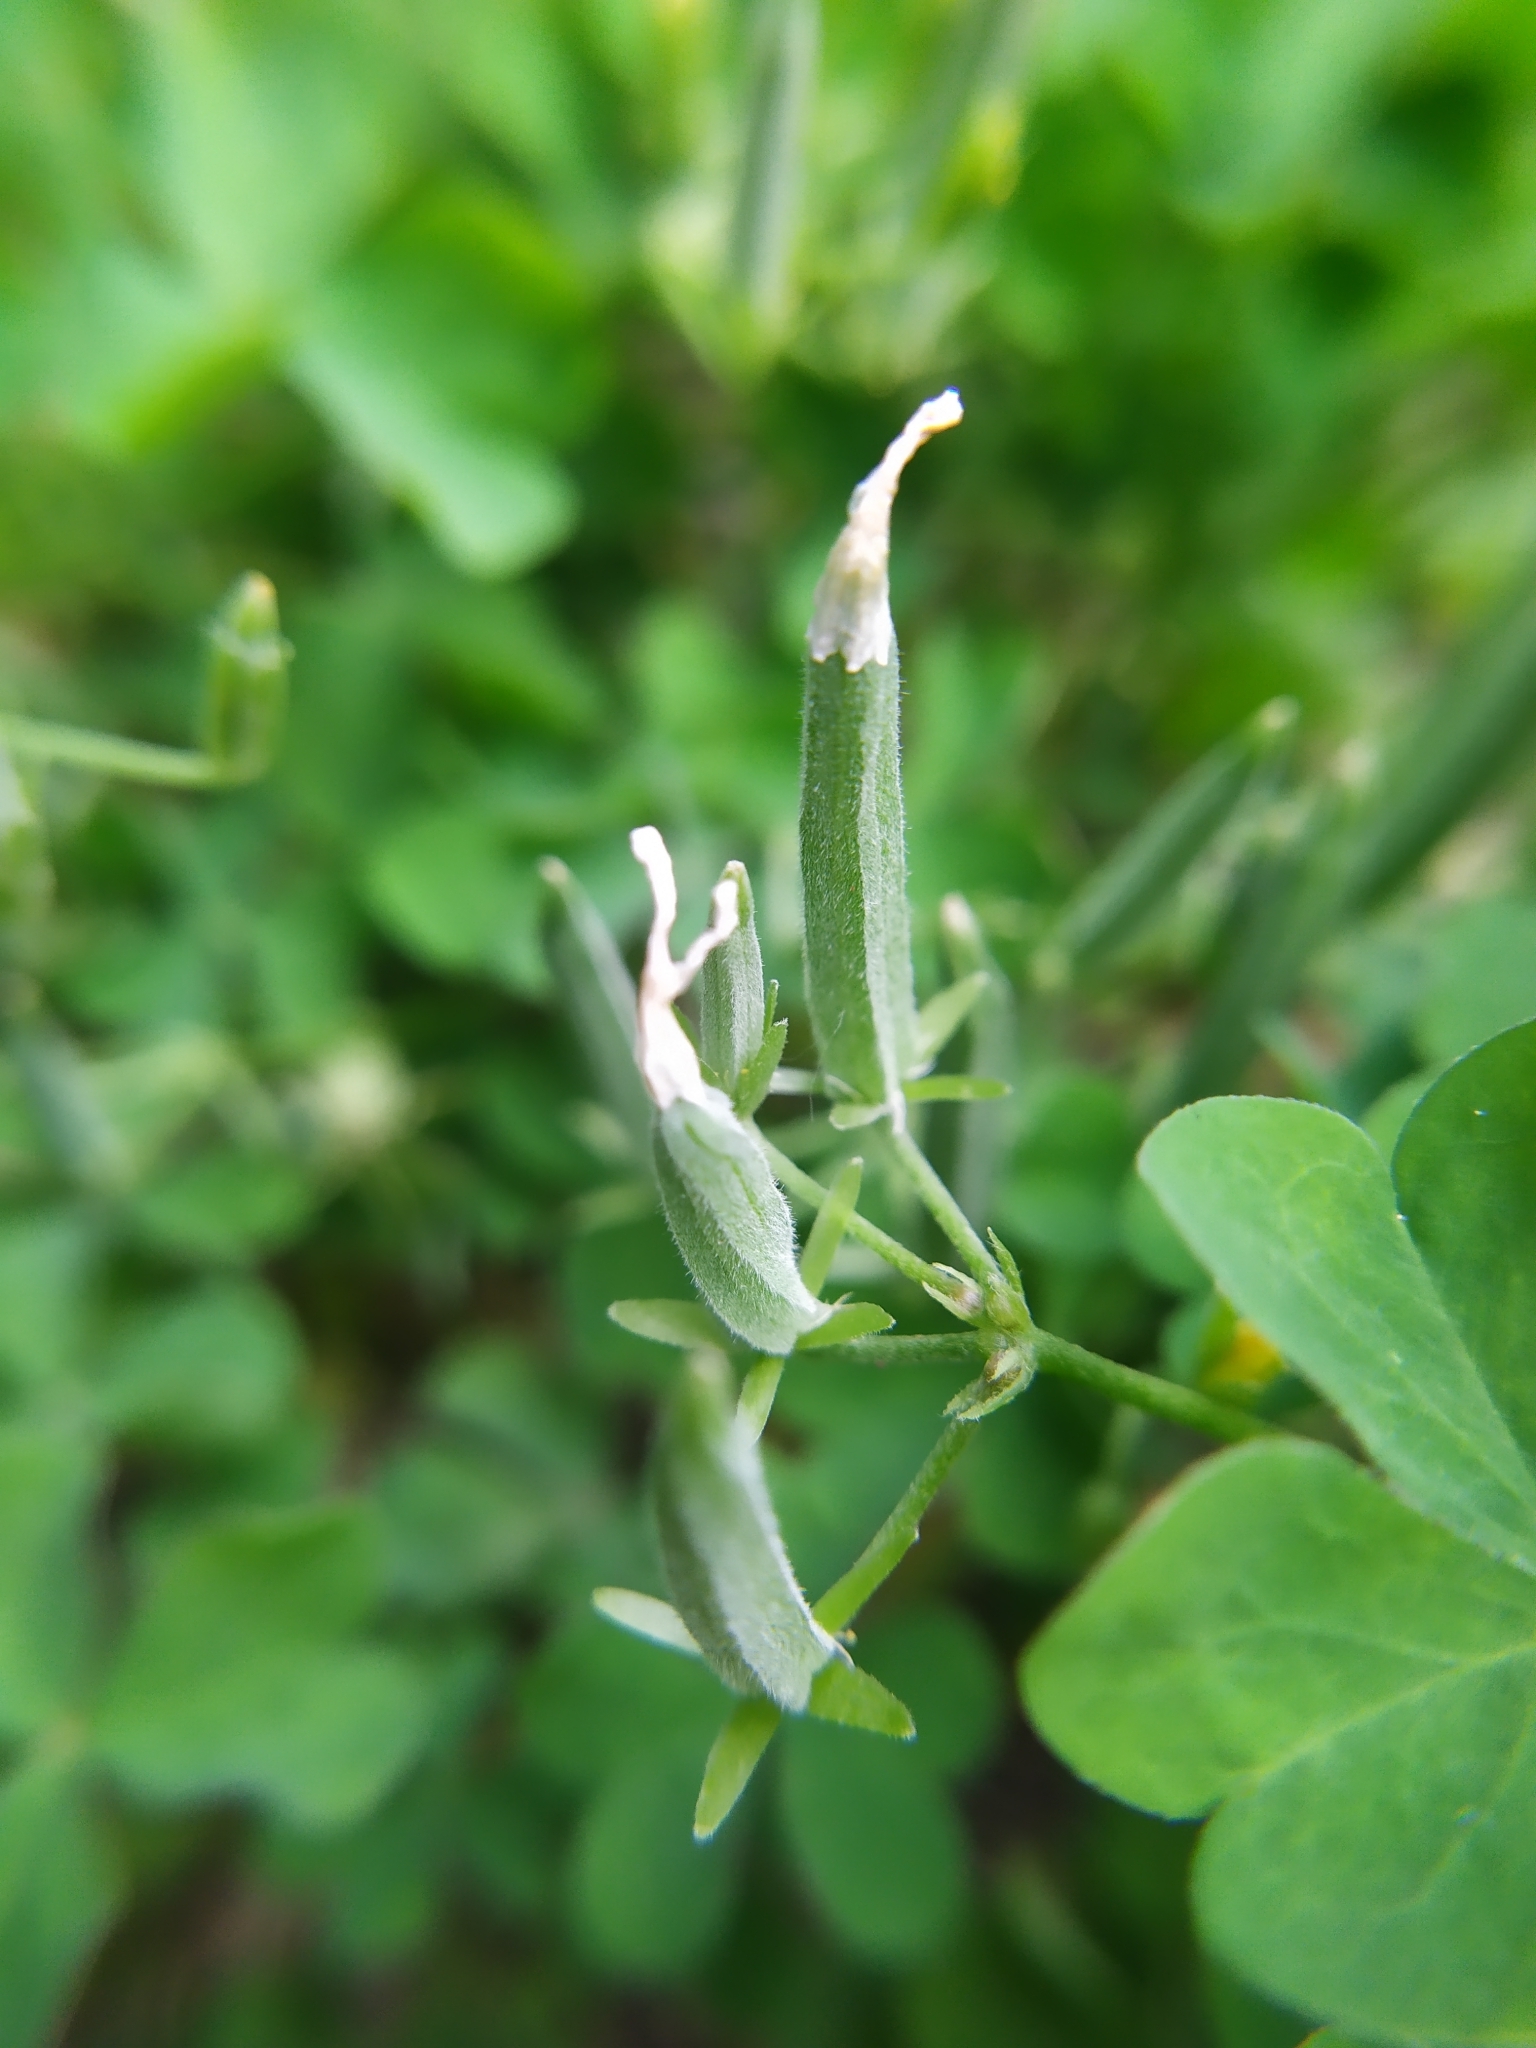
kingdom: Plantae
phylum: Tracheophyta
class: Magnoliopsida
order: Oxalidales
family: Oxalidaceae
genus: Oxalis
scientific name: Oxalis dillenii
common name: Sussex yellow-sorrel
